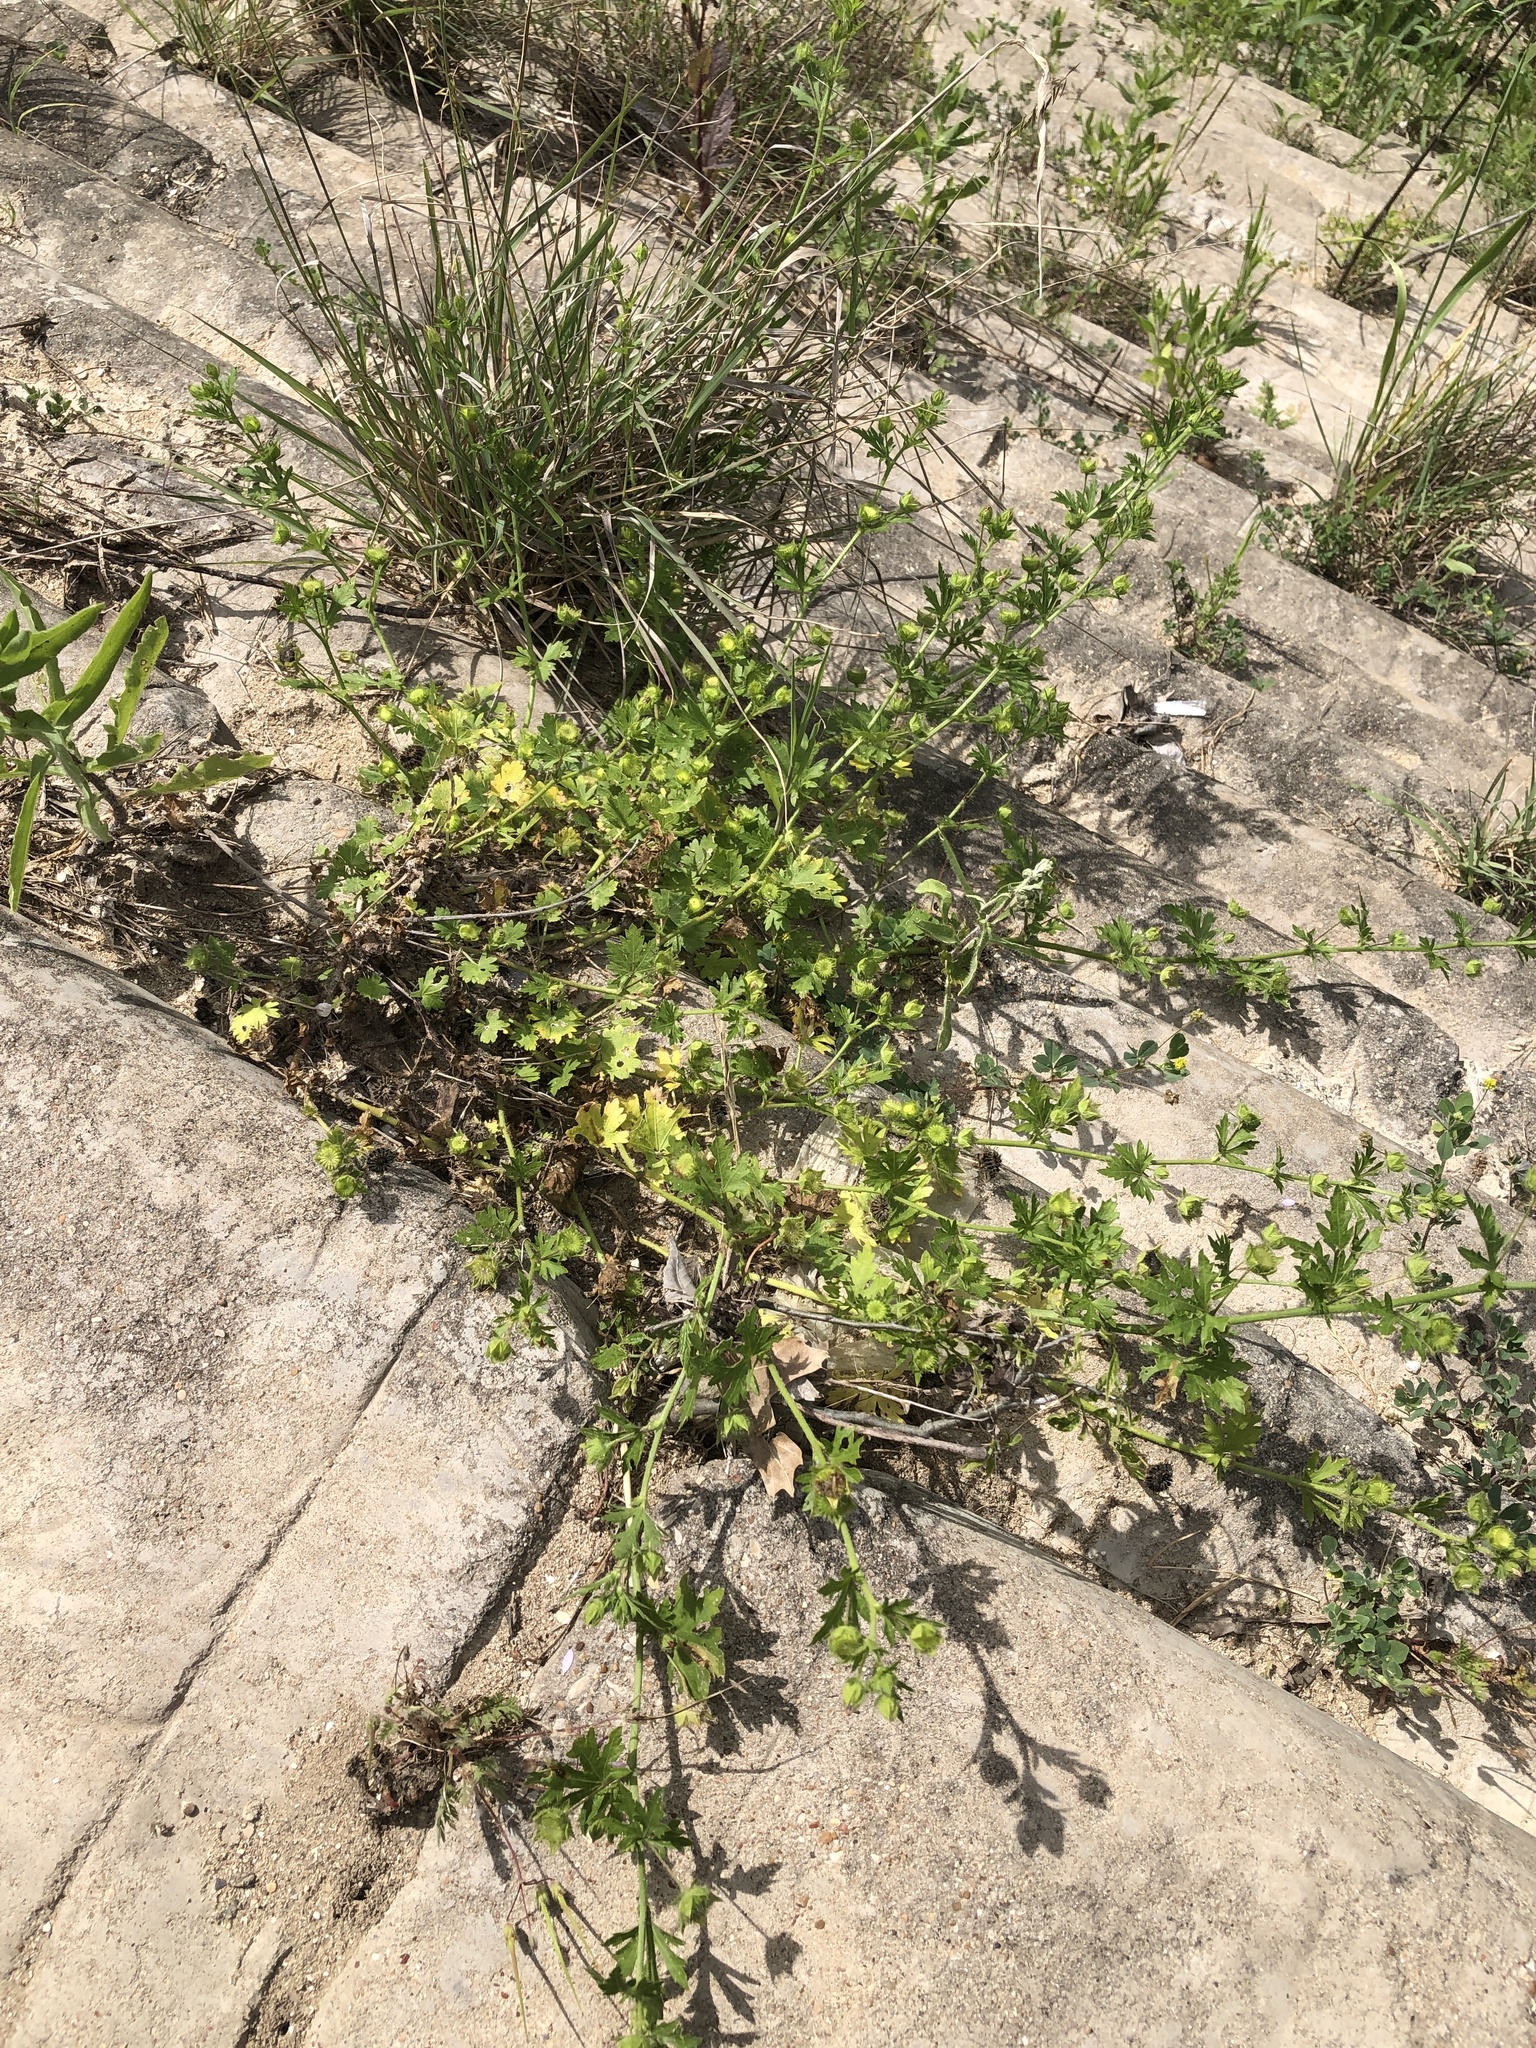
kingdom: Plantae
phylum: Tracheophyta
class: Magnoliopsida
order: Malvales
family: Malvaceae
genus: Modiola
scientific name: Modiola caroliniana
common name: Carolina bristlemallow
